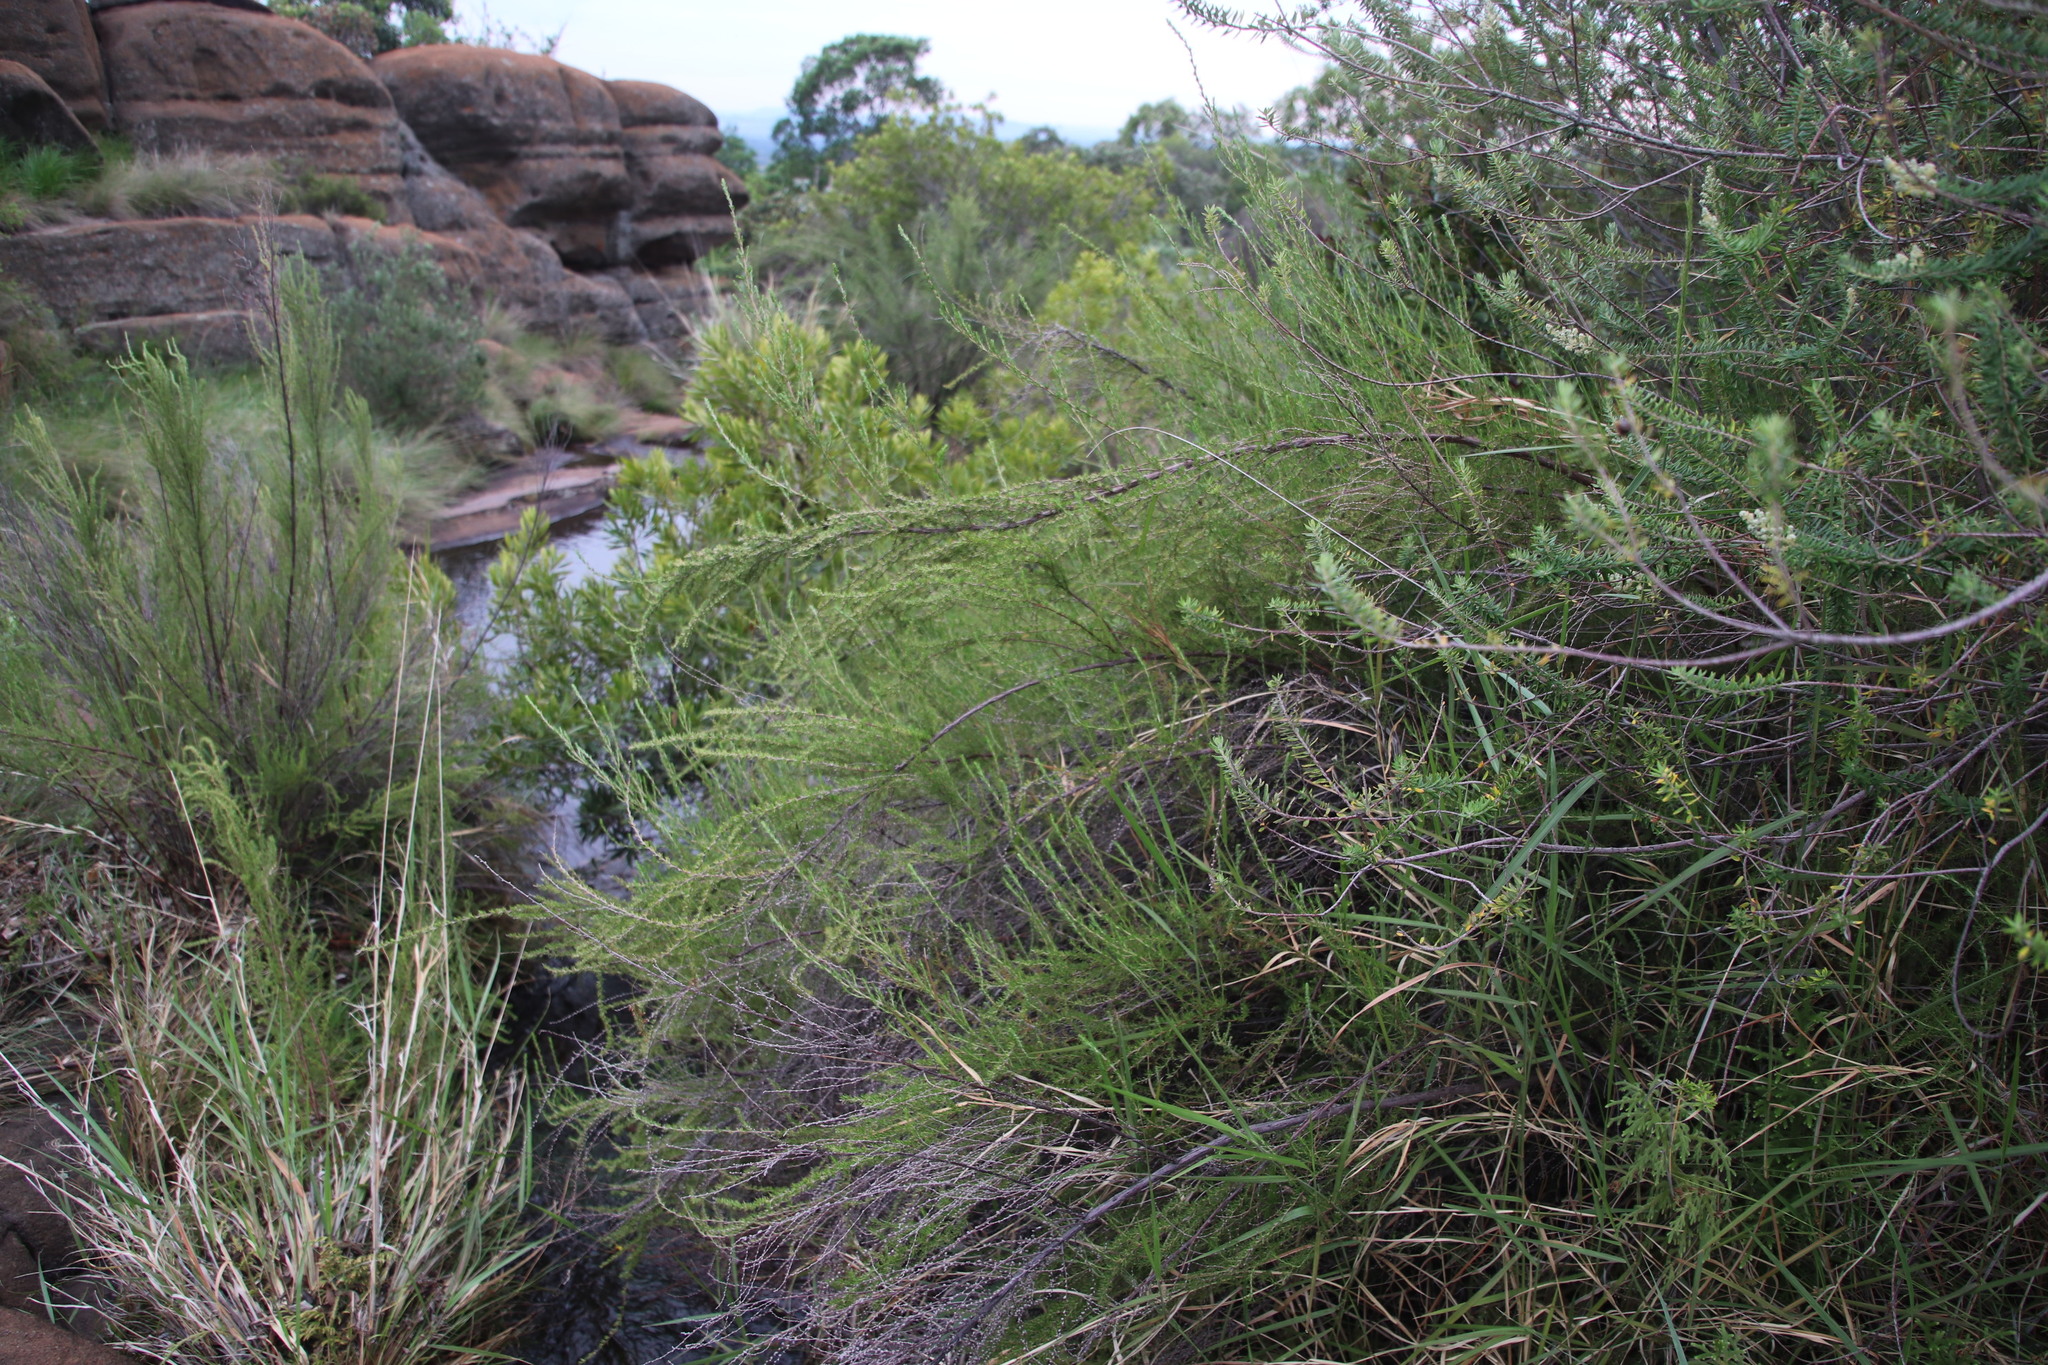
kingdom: Plantae
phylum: Tracheophyta
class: Magnoliopsida
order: Rosales
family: Rosaceae
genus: Cliffortia
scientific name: Cliffortia linearifolia
